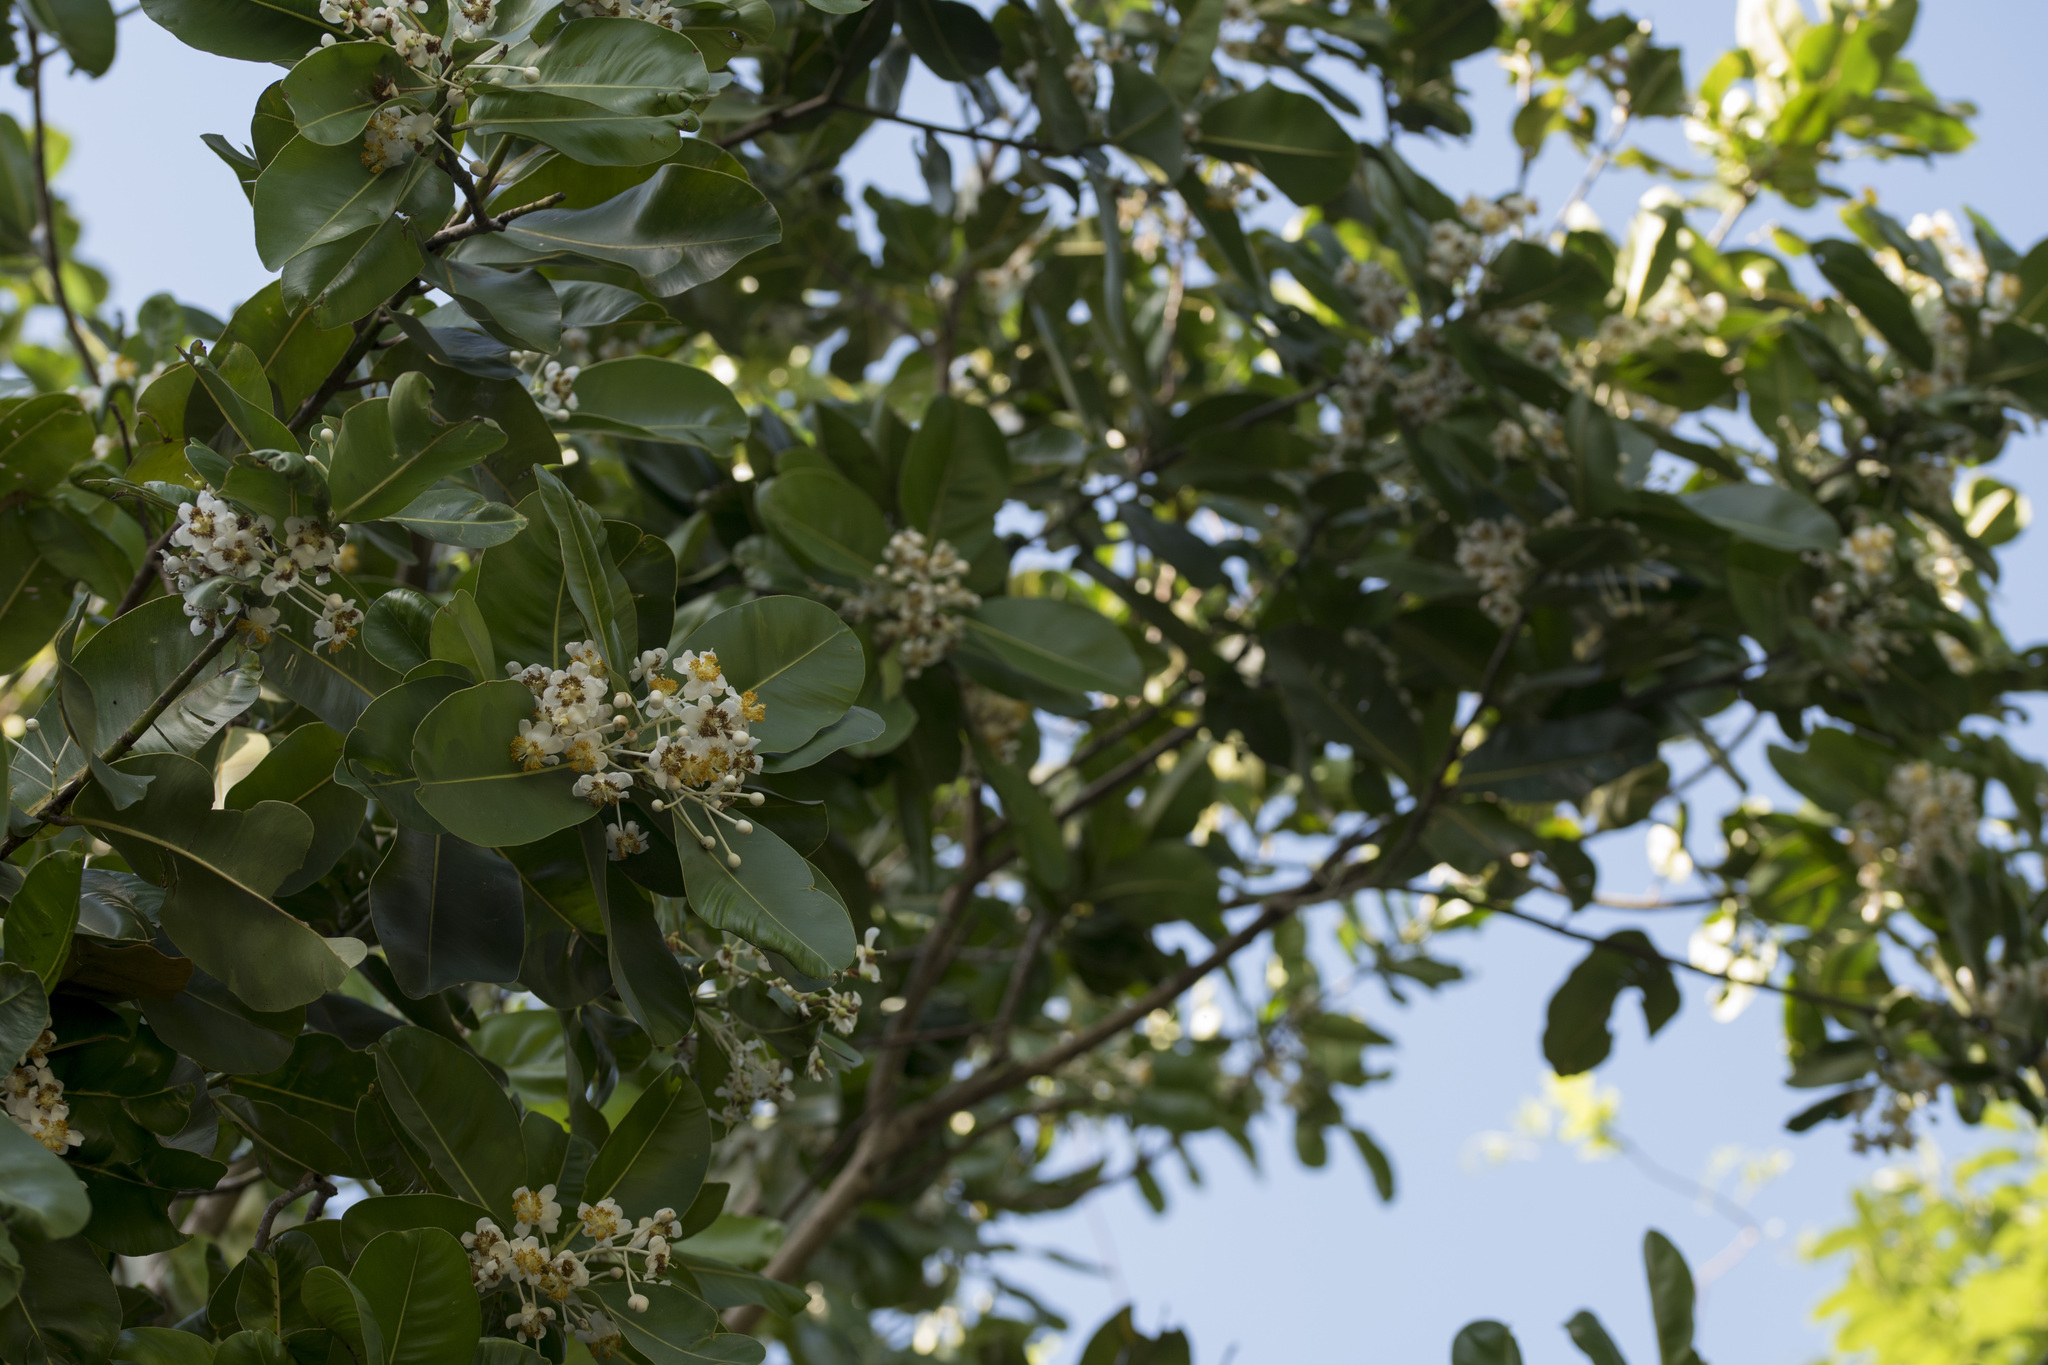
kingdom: Plantae
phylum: Tracheophyta
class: Magnoliopsida
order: Malpighiales
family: Calophyllaceae
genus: Calophyllum
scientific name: Calophyllum inophyllum
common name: Alexandrian laurel
